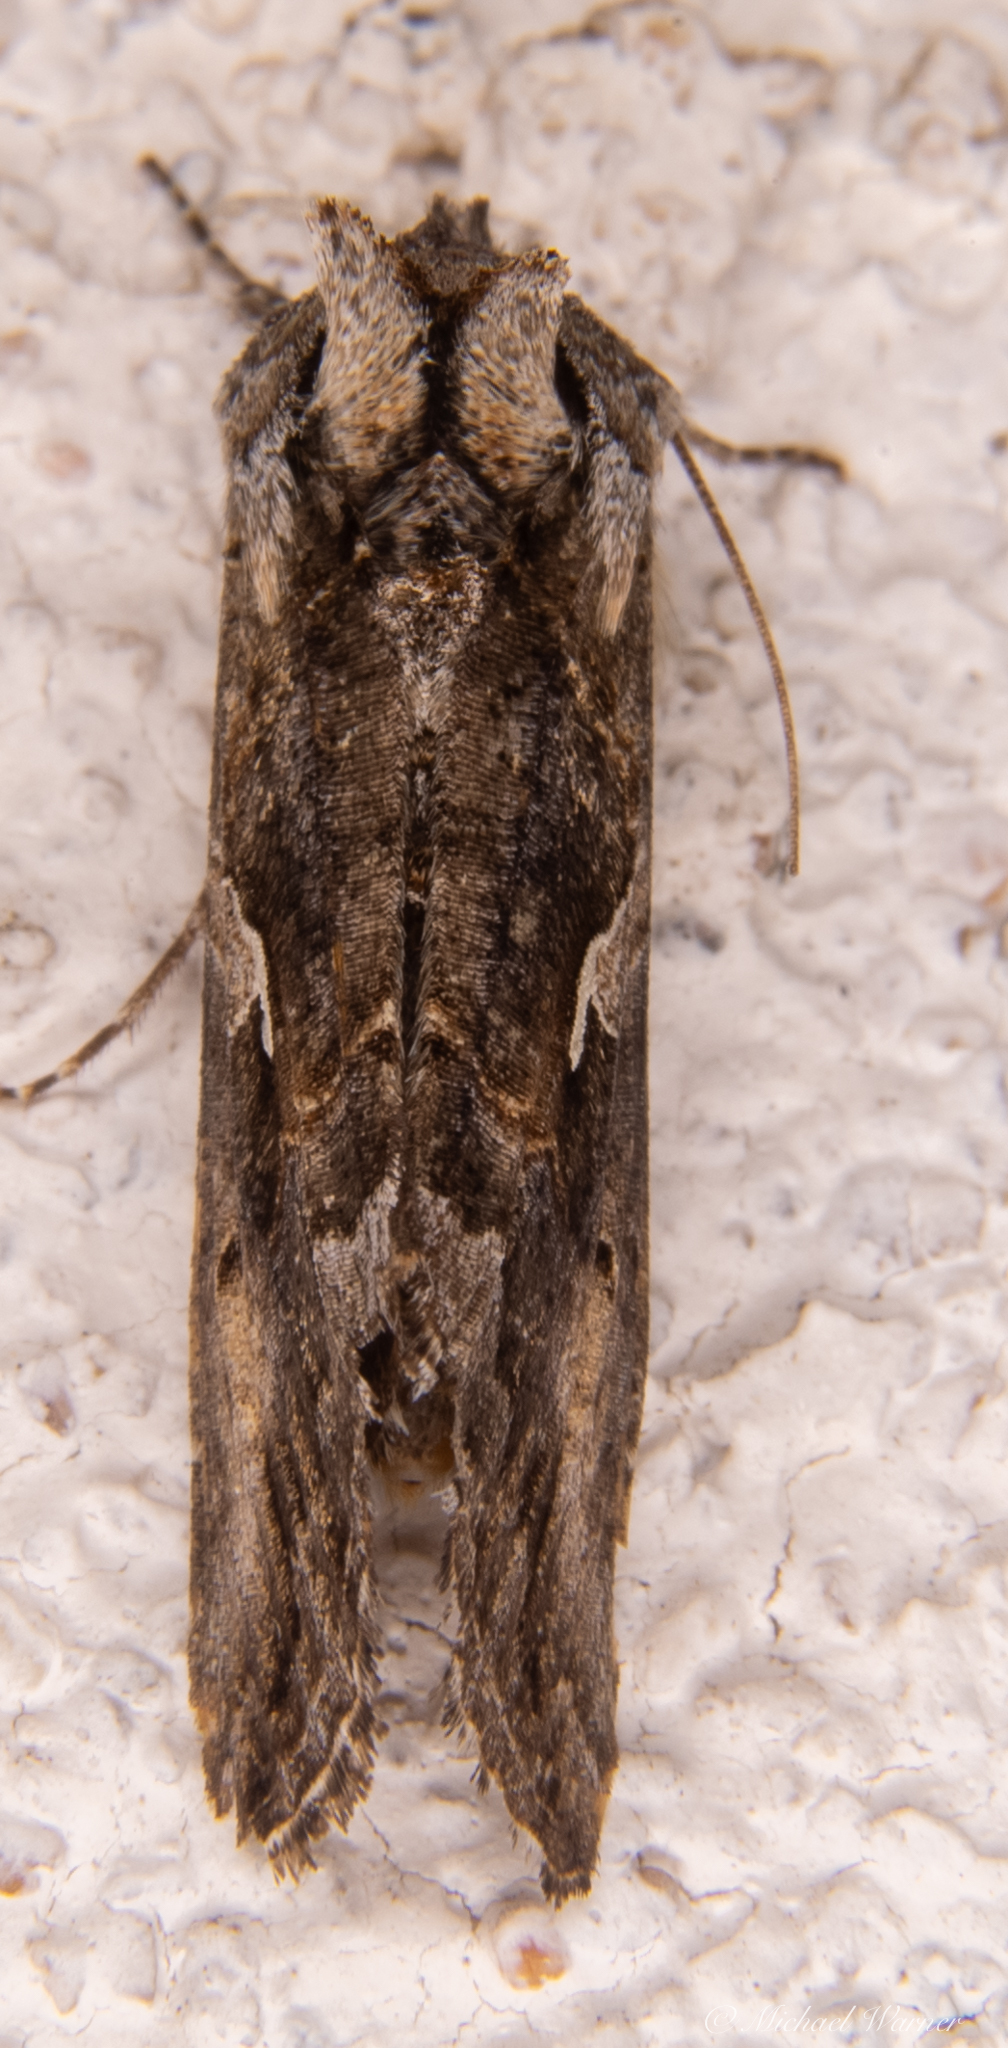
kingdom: Animalia
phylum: Arthropoda
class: Insecta
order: Lepidoptera
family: Noctuidae
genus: Autographa
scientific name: Autographa californica
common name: Alfalfa looper
